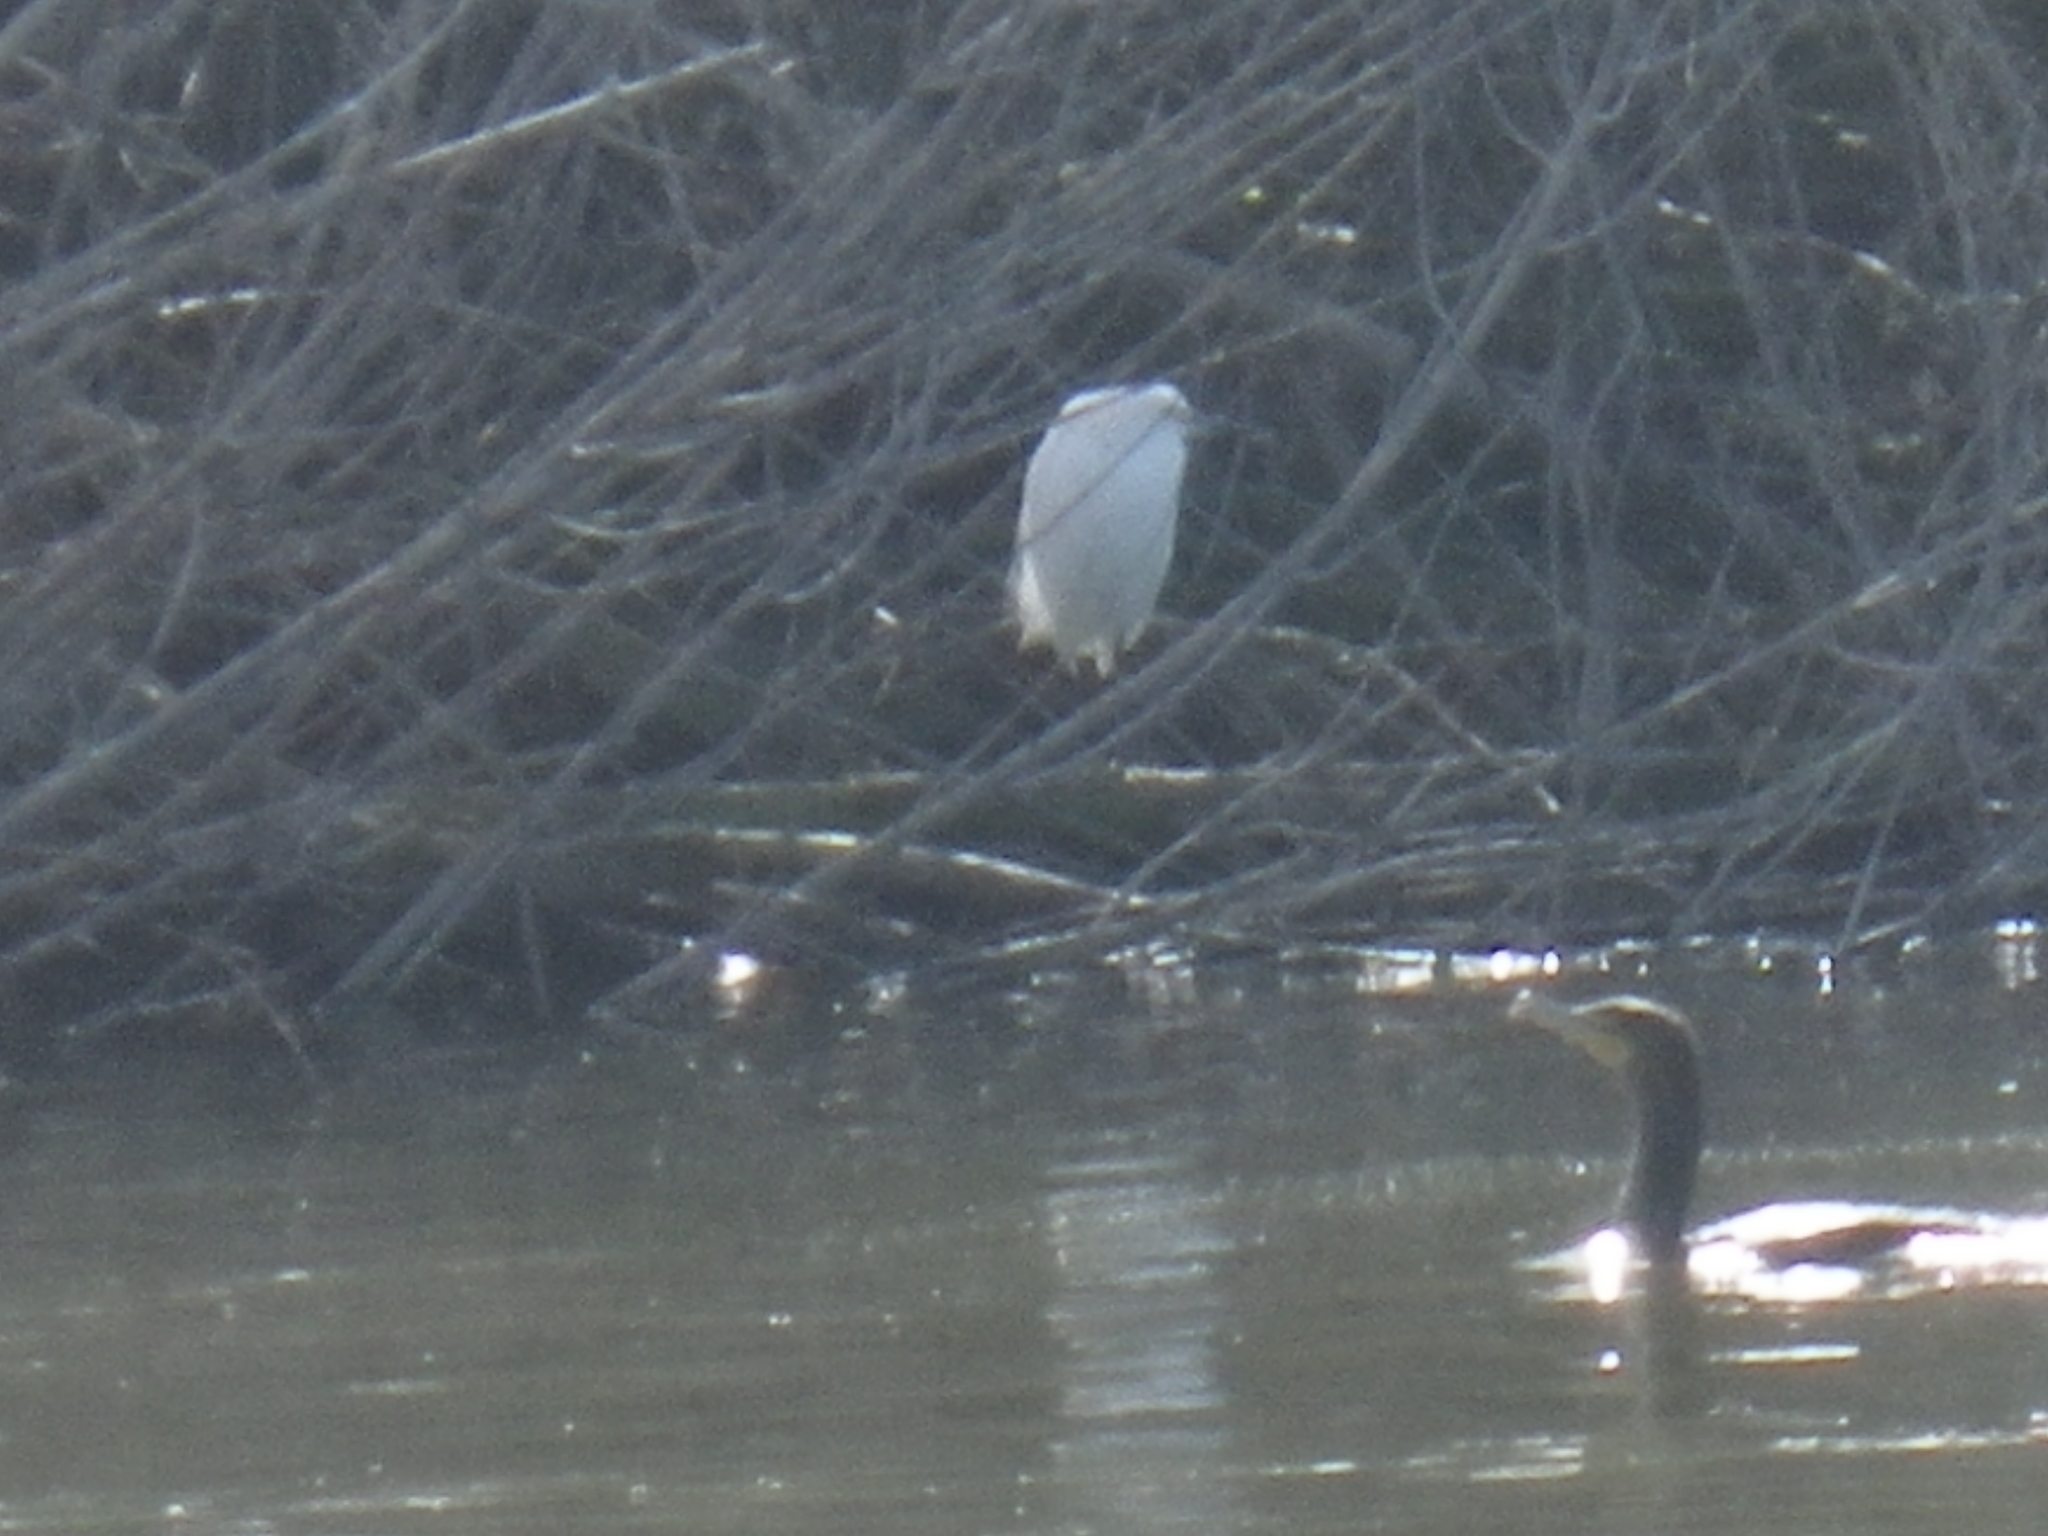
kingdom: Animalia
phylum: Chordata
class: Aves
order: Pelecaniformes
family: Ardeidae
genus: Egretta
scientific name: Egretta thula
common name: Snowy egret
